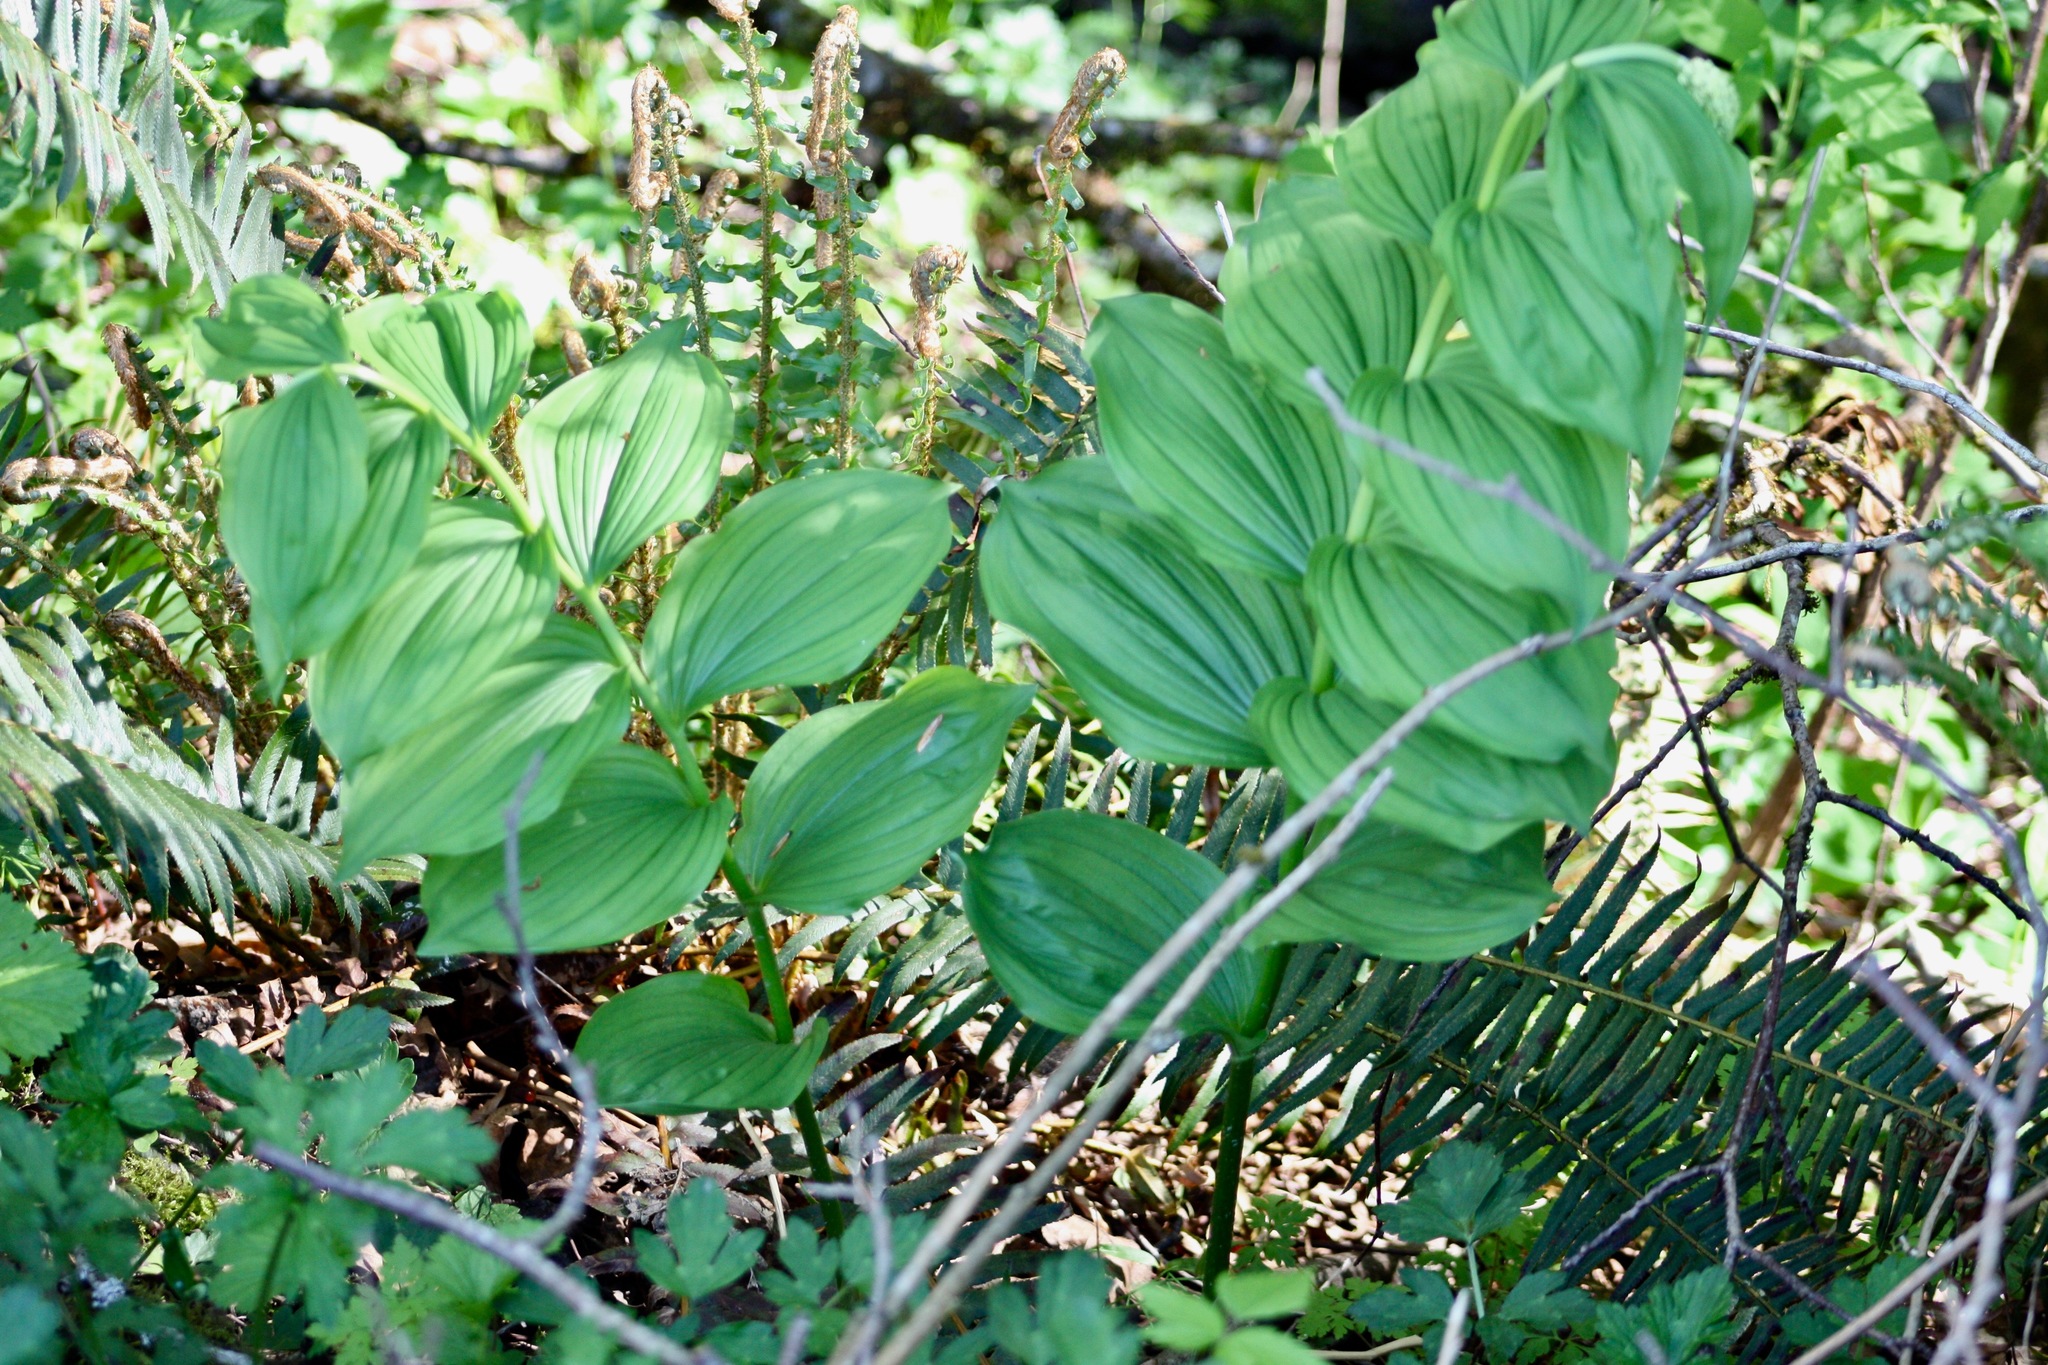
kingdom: Plantae
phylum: Tracheophyta
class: Liliopsida
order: Asparagales
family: Asparagaceae
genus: Maianthemum
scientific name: Maianthemum racemosum
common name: False spikenard
